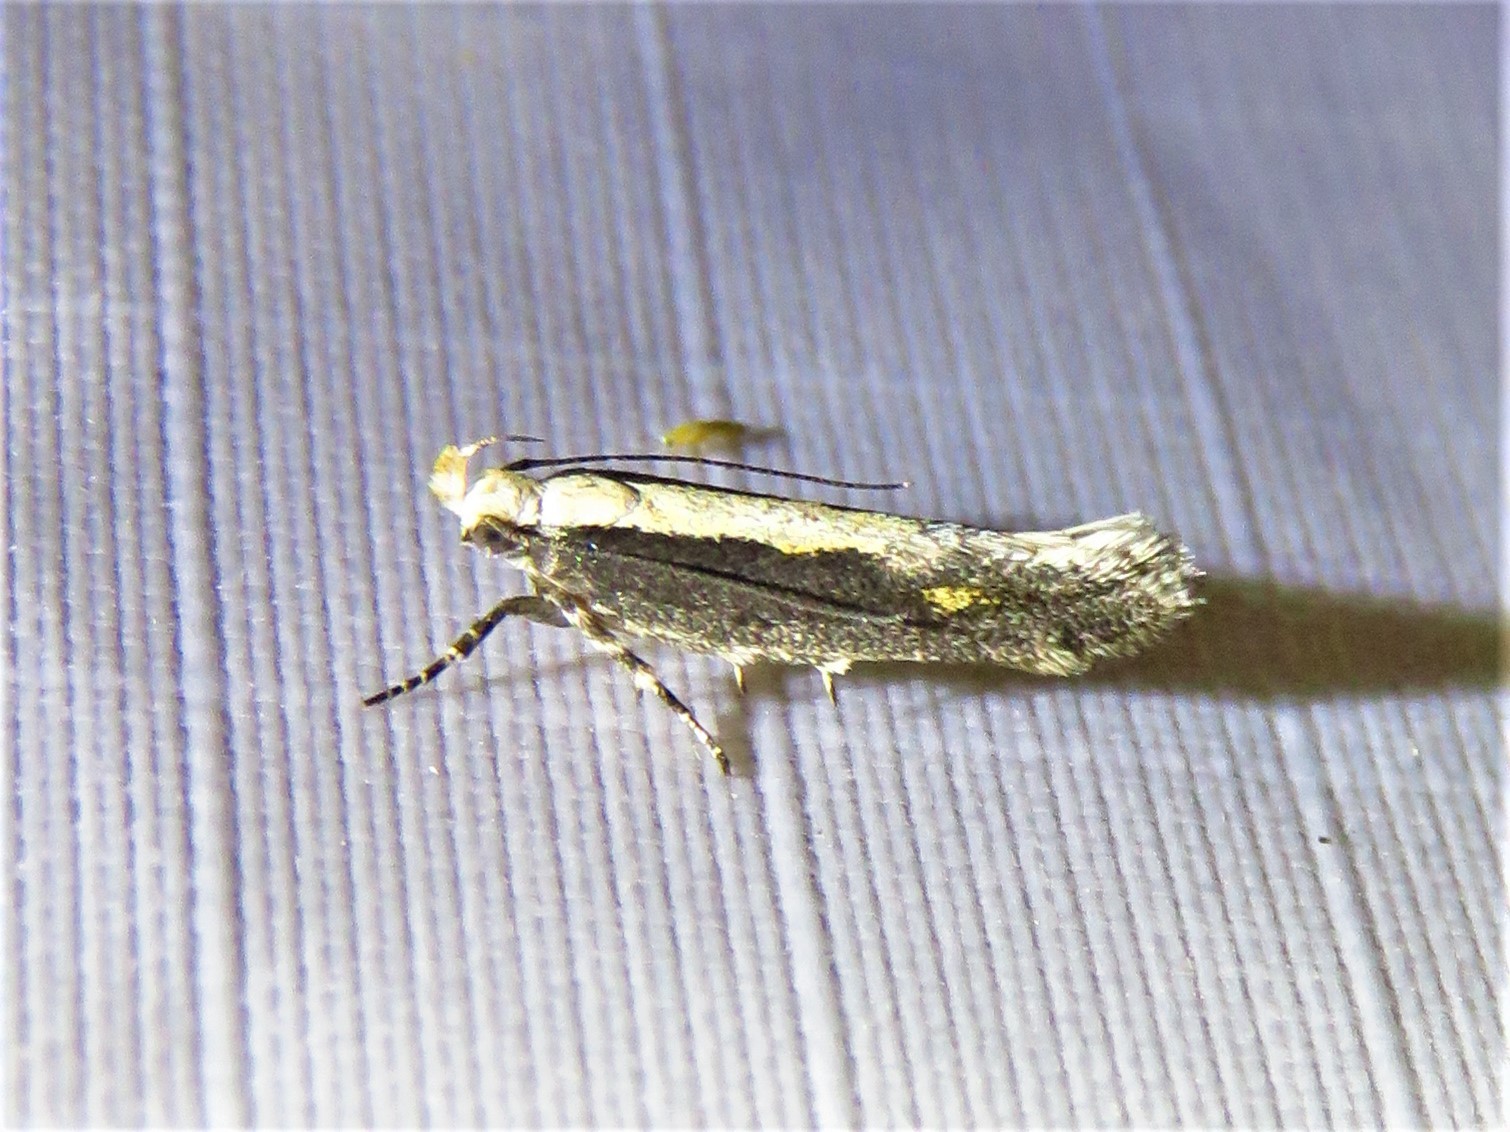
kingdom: Animalia
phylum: Arthropoda
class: Insecta
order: Lepidoptera
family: Gelechiidae
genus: Aristotelia
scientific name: Aristotelia corallina
